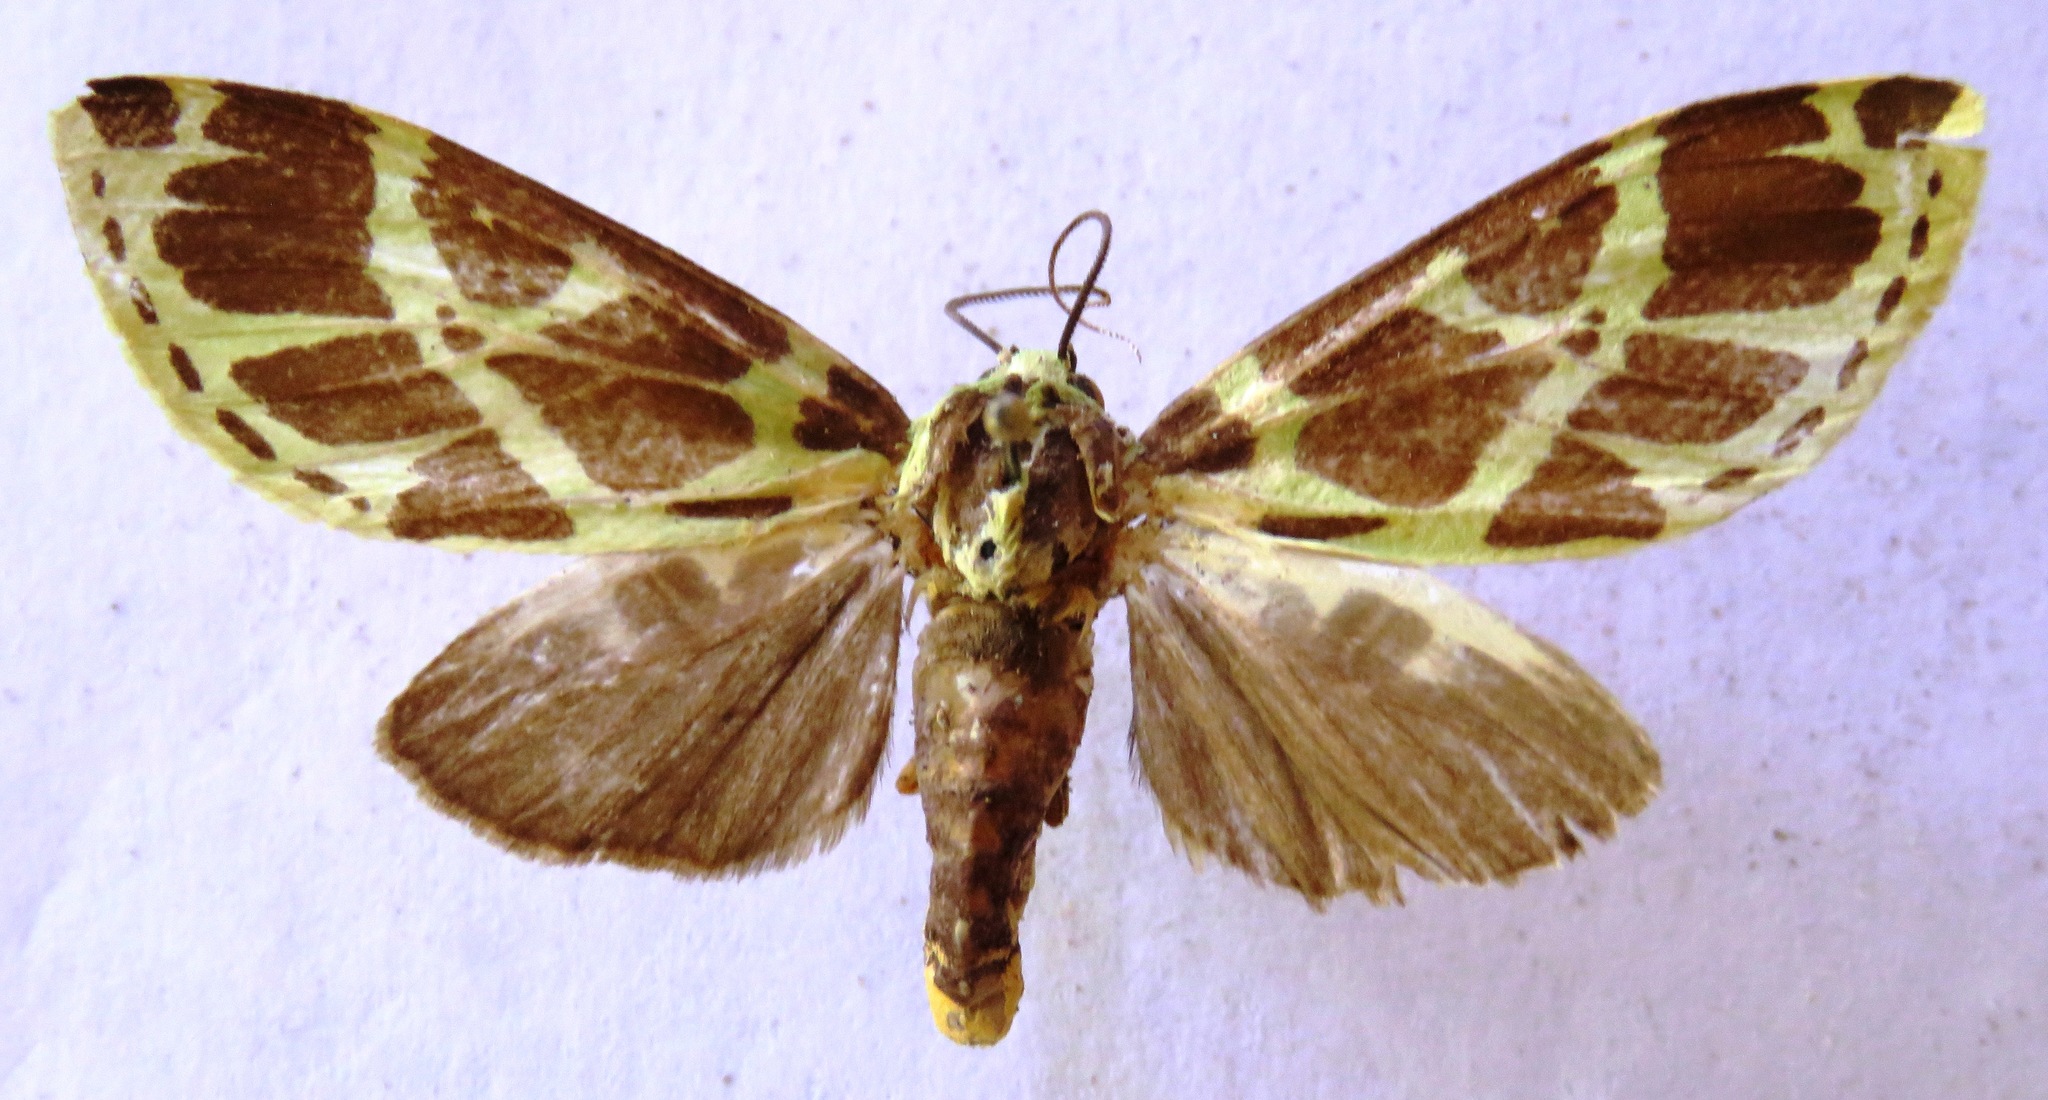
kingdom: Animalia
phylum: Arthropoda
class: Insecta
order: Lepidoptera
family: Erebidae
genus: Symphlebia
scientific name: Symphlebia tessellata
